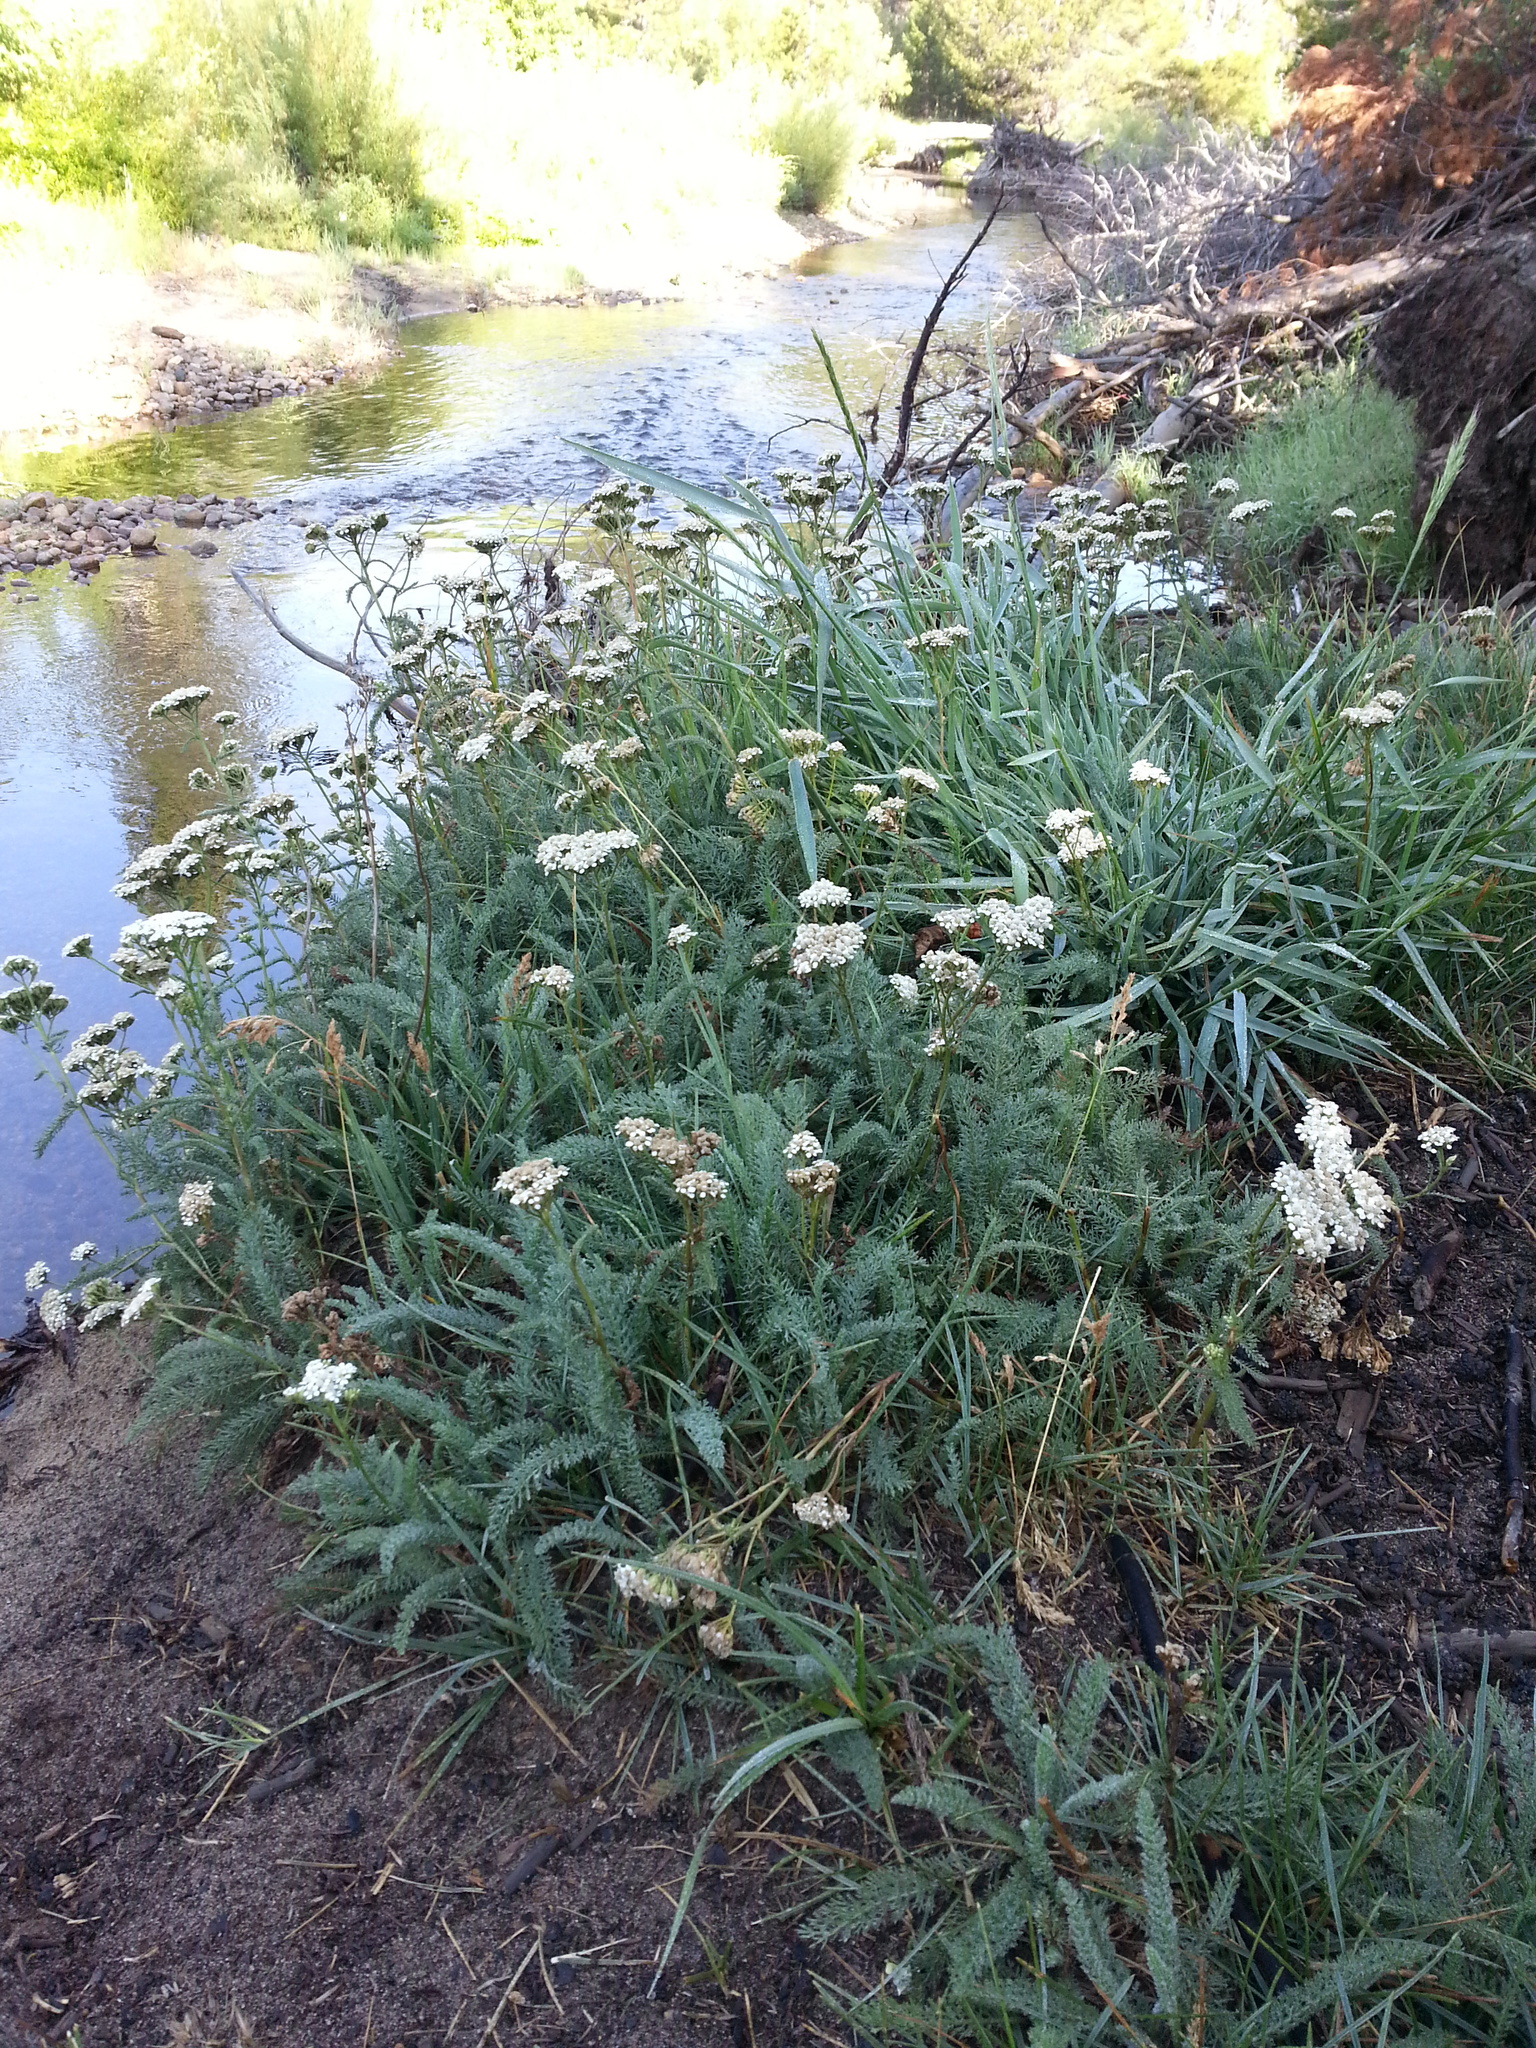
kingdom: Plantae
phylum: Tracheophyta
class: Magnoliopsida
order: Asterales
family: Asteraceae
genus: Achillea
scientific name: Achillea millefolium
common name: Yarrow
